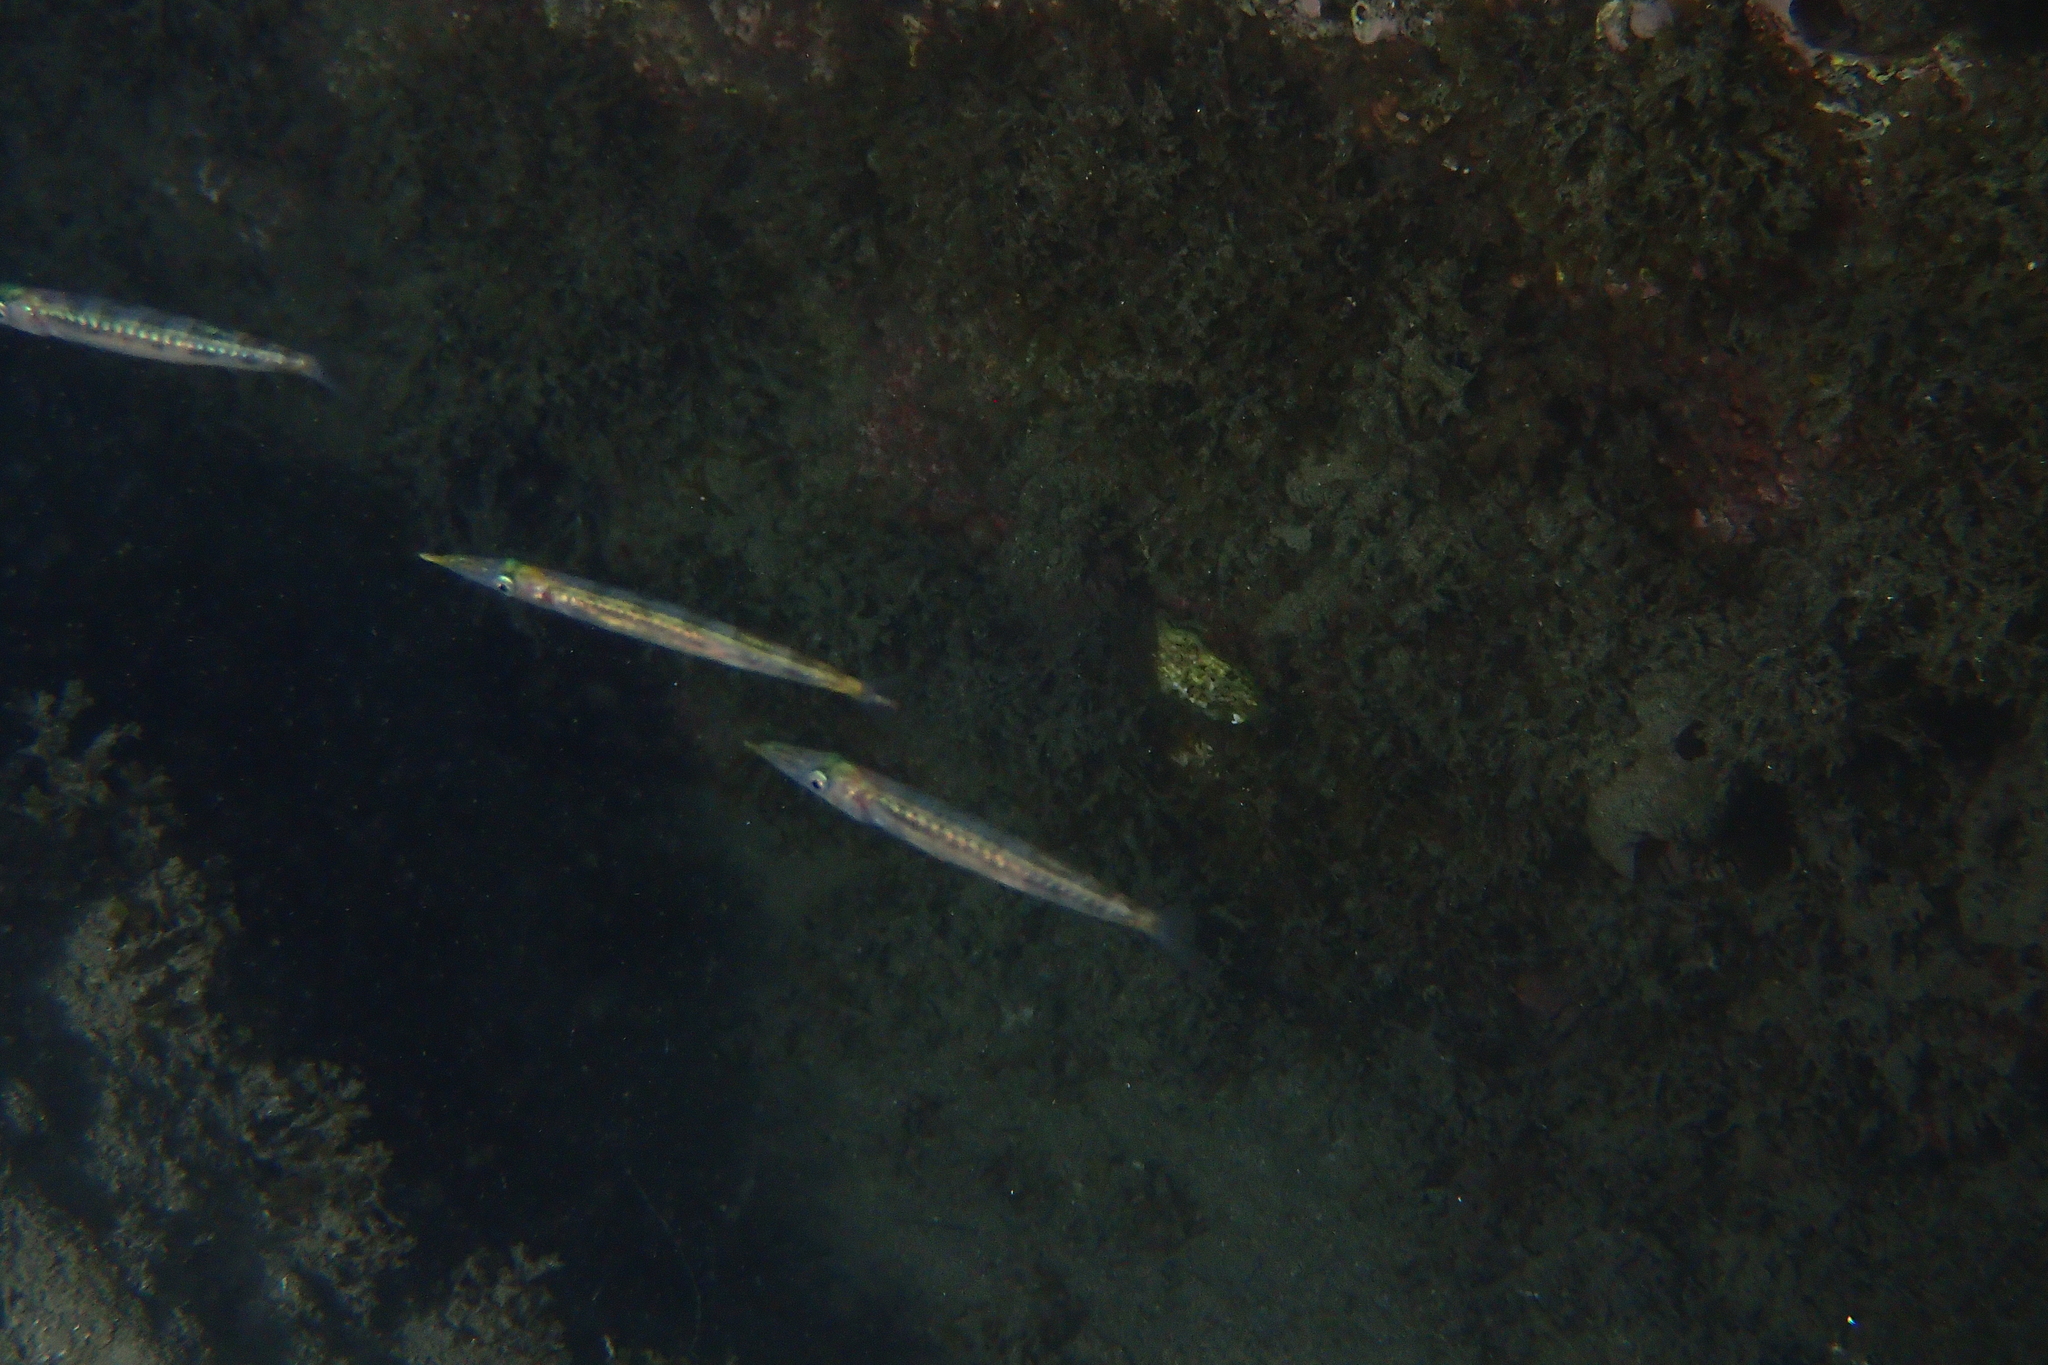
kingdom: Animalia
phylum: Chordata
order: Perciformes
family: Sphyraenidae
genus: Sphyraena
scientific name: Sphyraena
